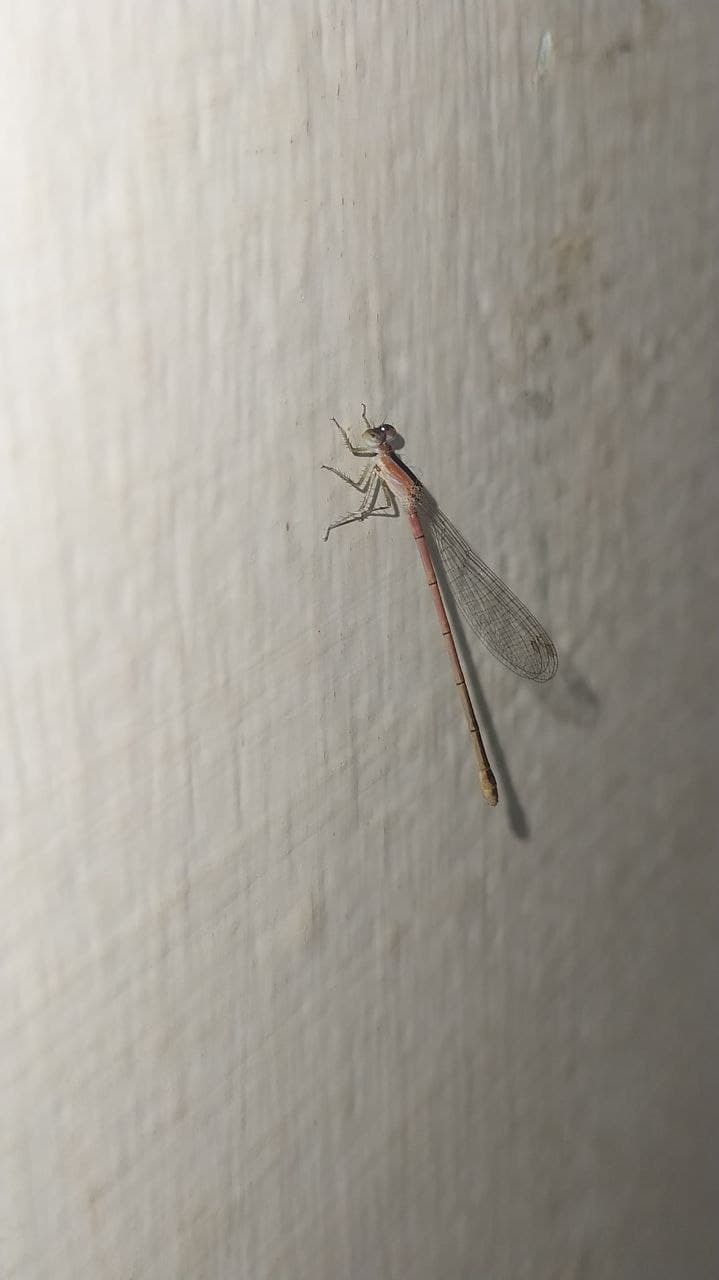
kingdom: Animalia
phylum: Arthropoda
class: Insecta
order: Odonata
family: Coenagrionidae
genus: Agriocnemis
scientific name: Agriocnemis pygmaea
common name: Pygmy wisp
